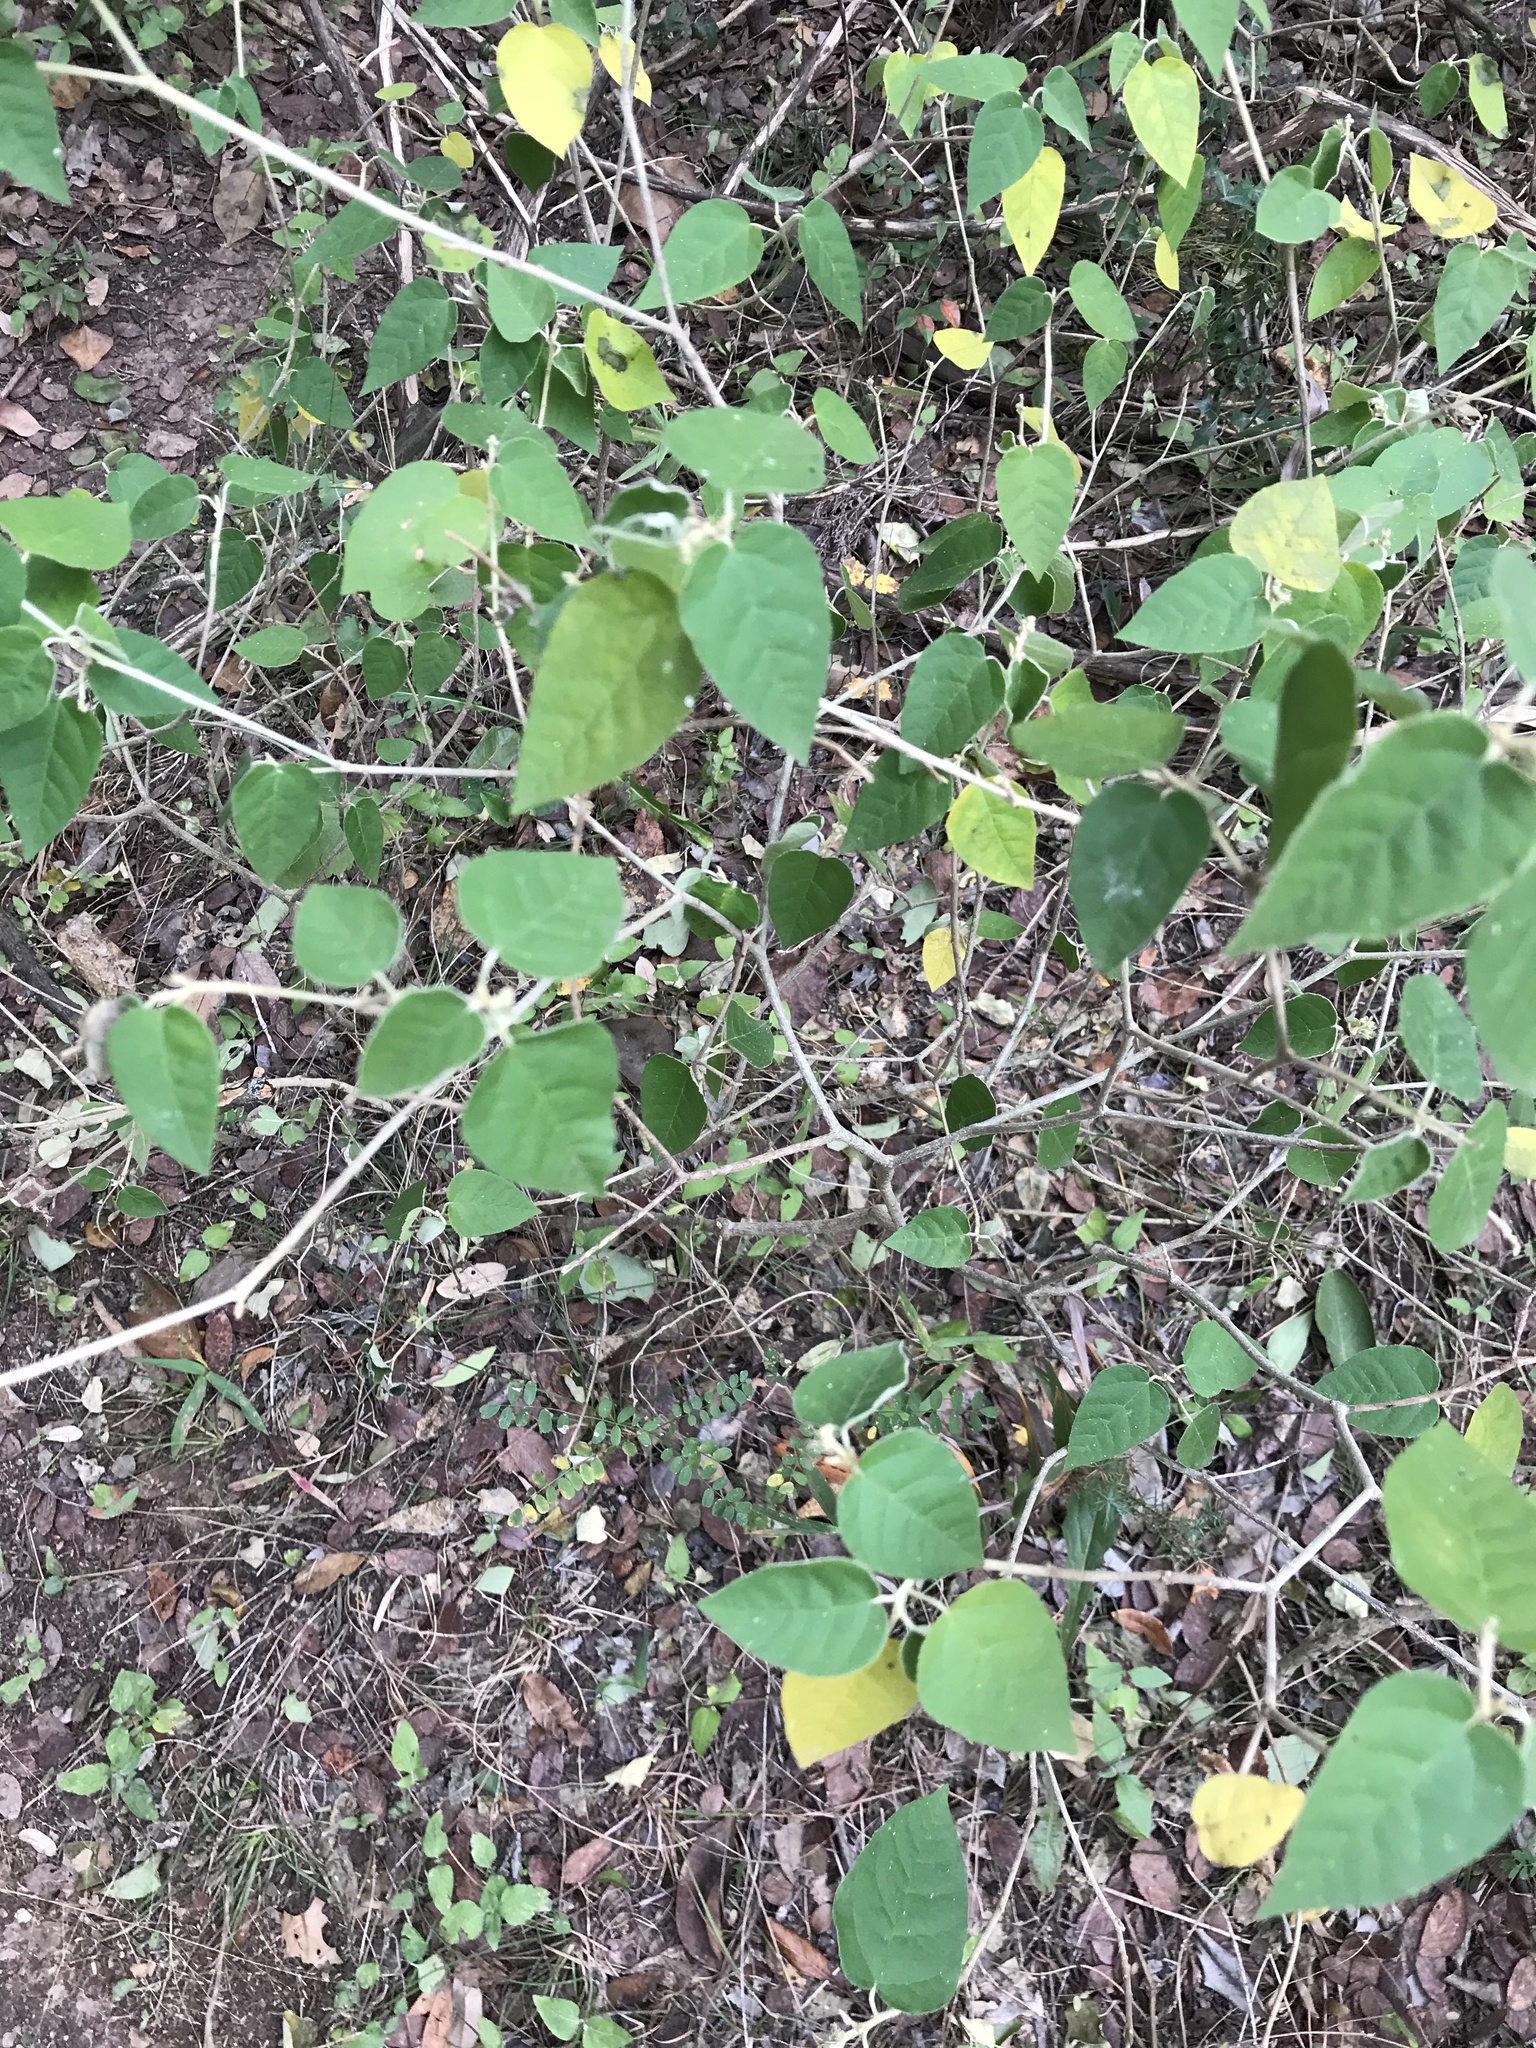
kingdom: Plantae
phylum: Tracheophyta
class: Magnoliopsida
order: Malpighiales
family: Euphorbiaceae
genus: Croton
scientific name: Croton fruticulosus
